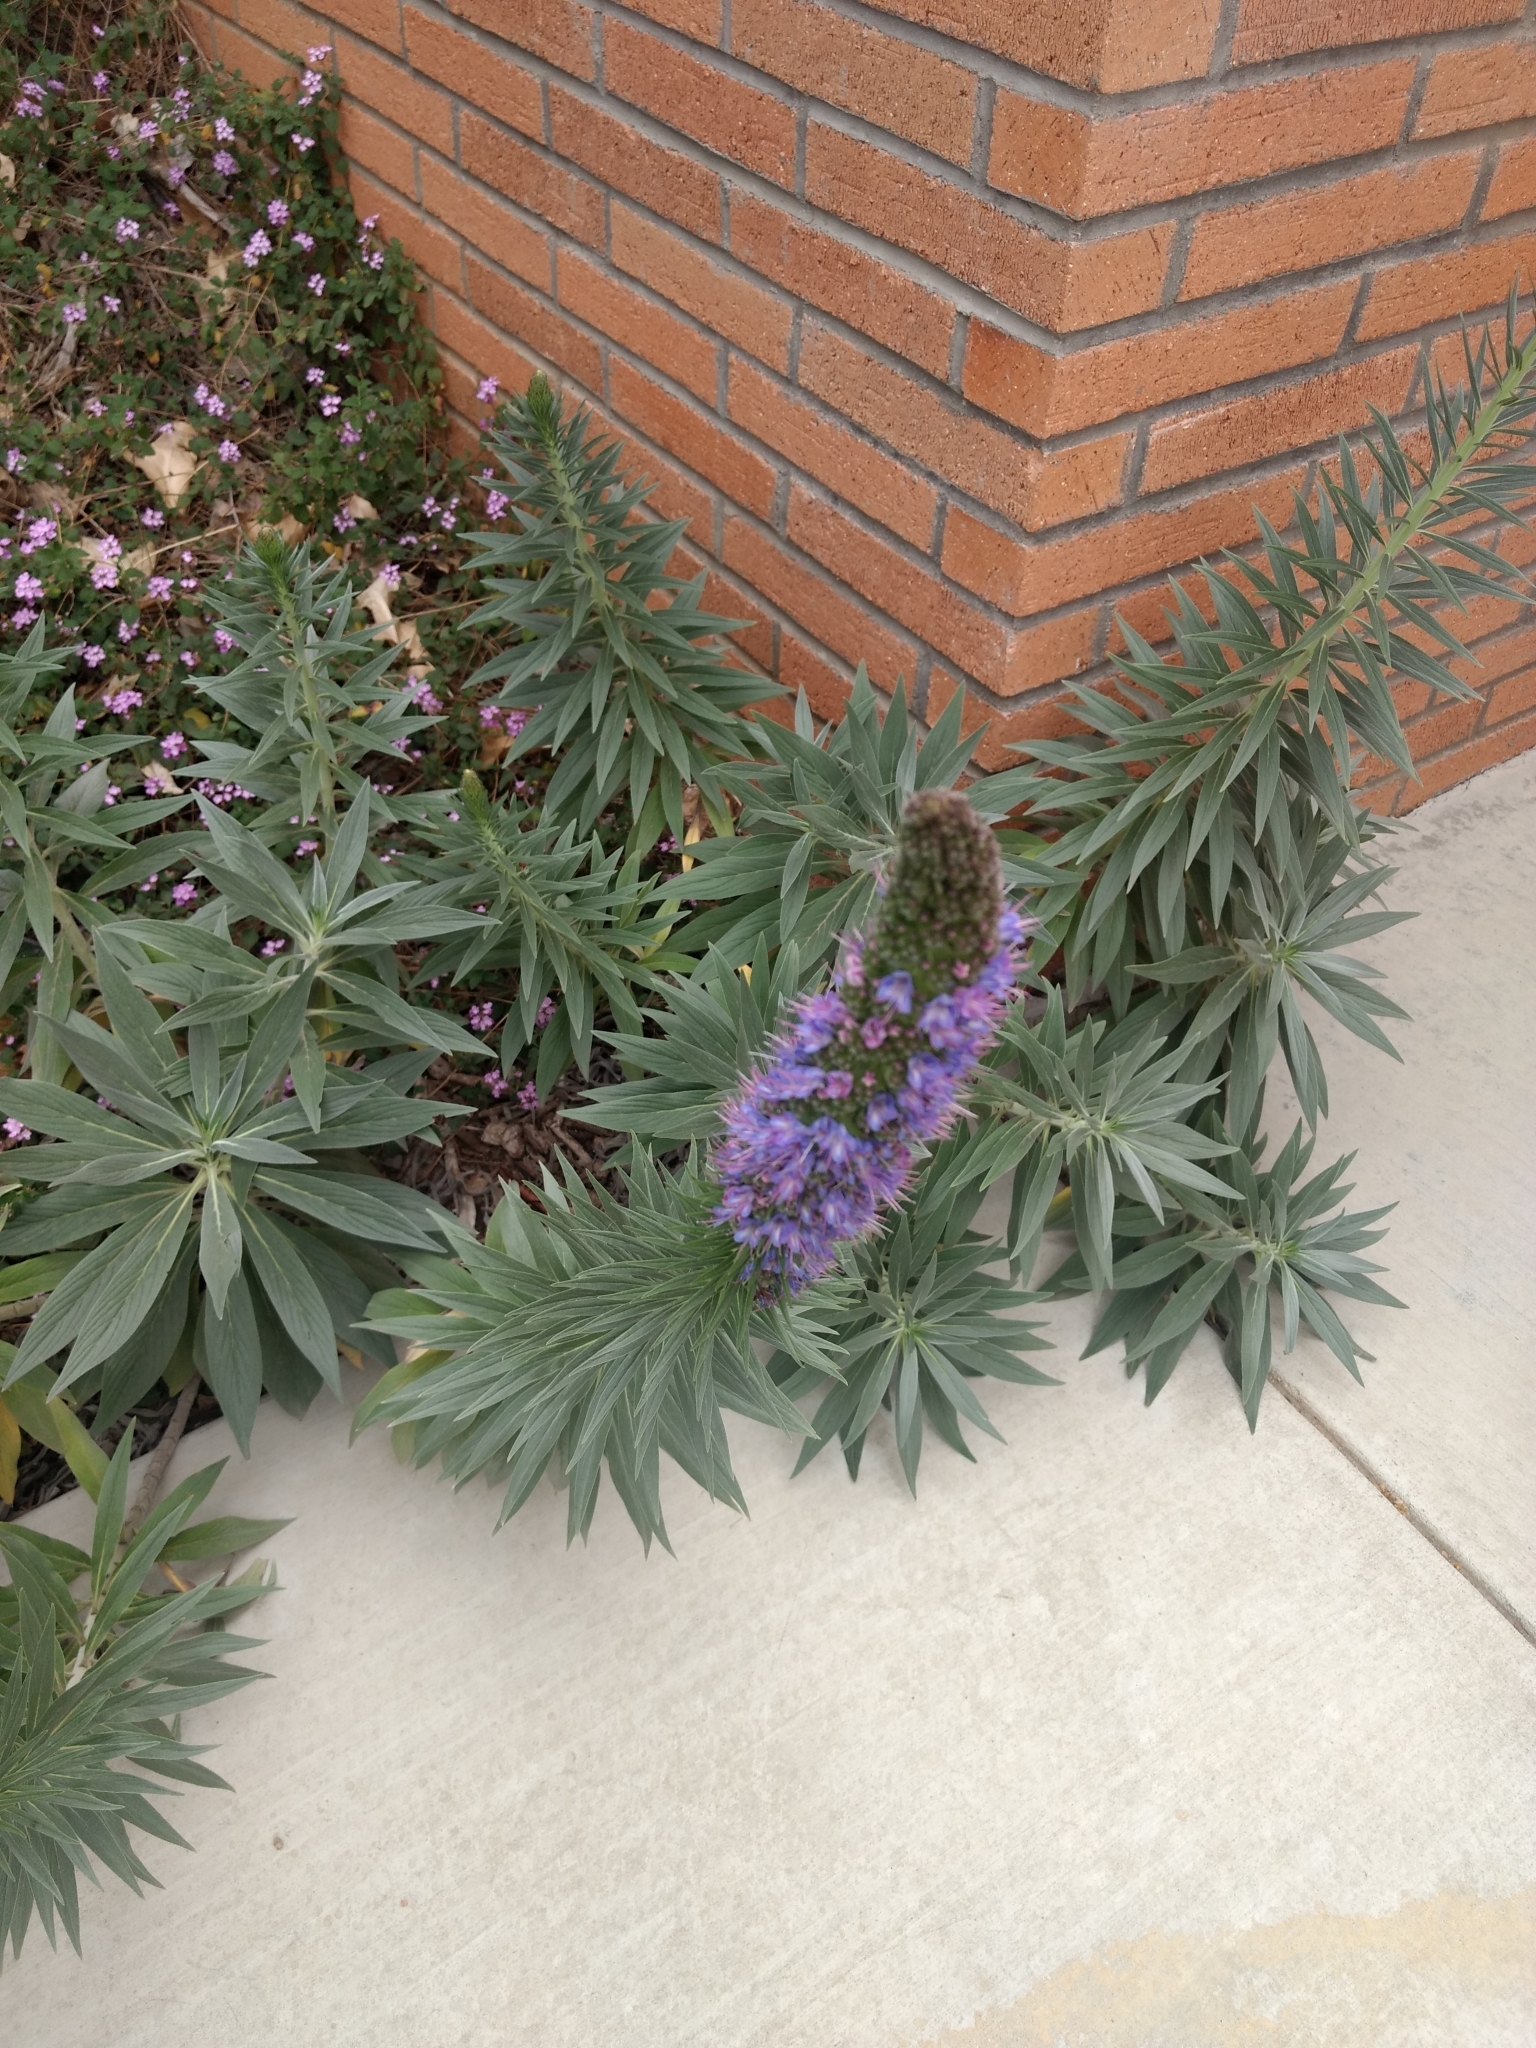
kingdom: Plantae
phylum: Tracheophyta
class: Magnoliopsida
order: Boraginales
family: Boraginaceae
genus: Echium
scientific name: Echium candicans
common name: Pride of madeira
